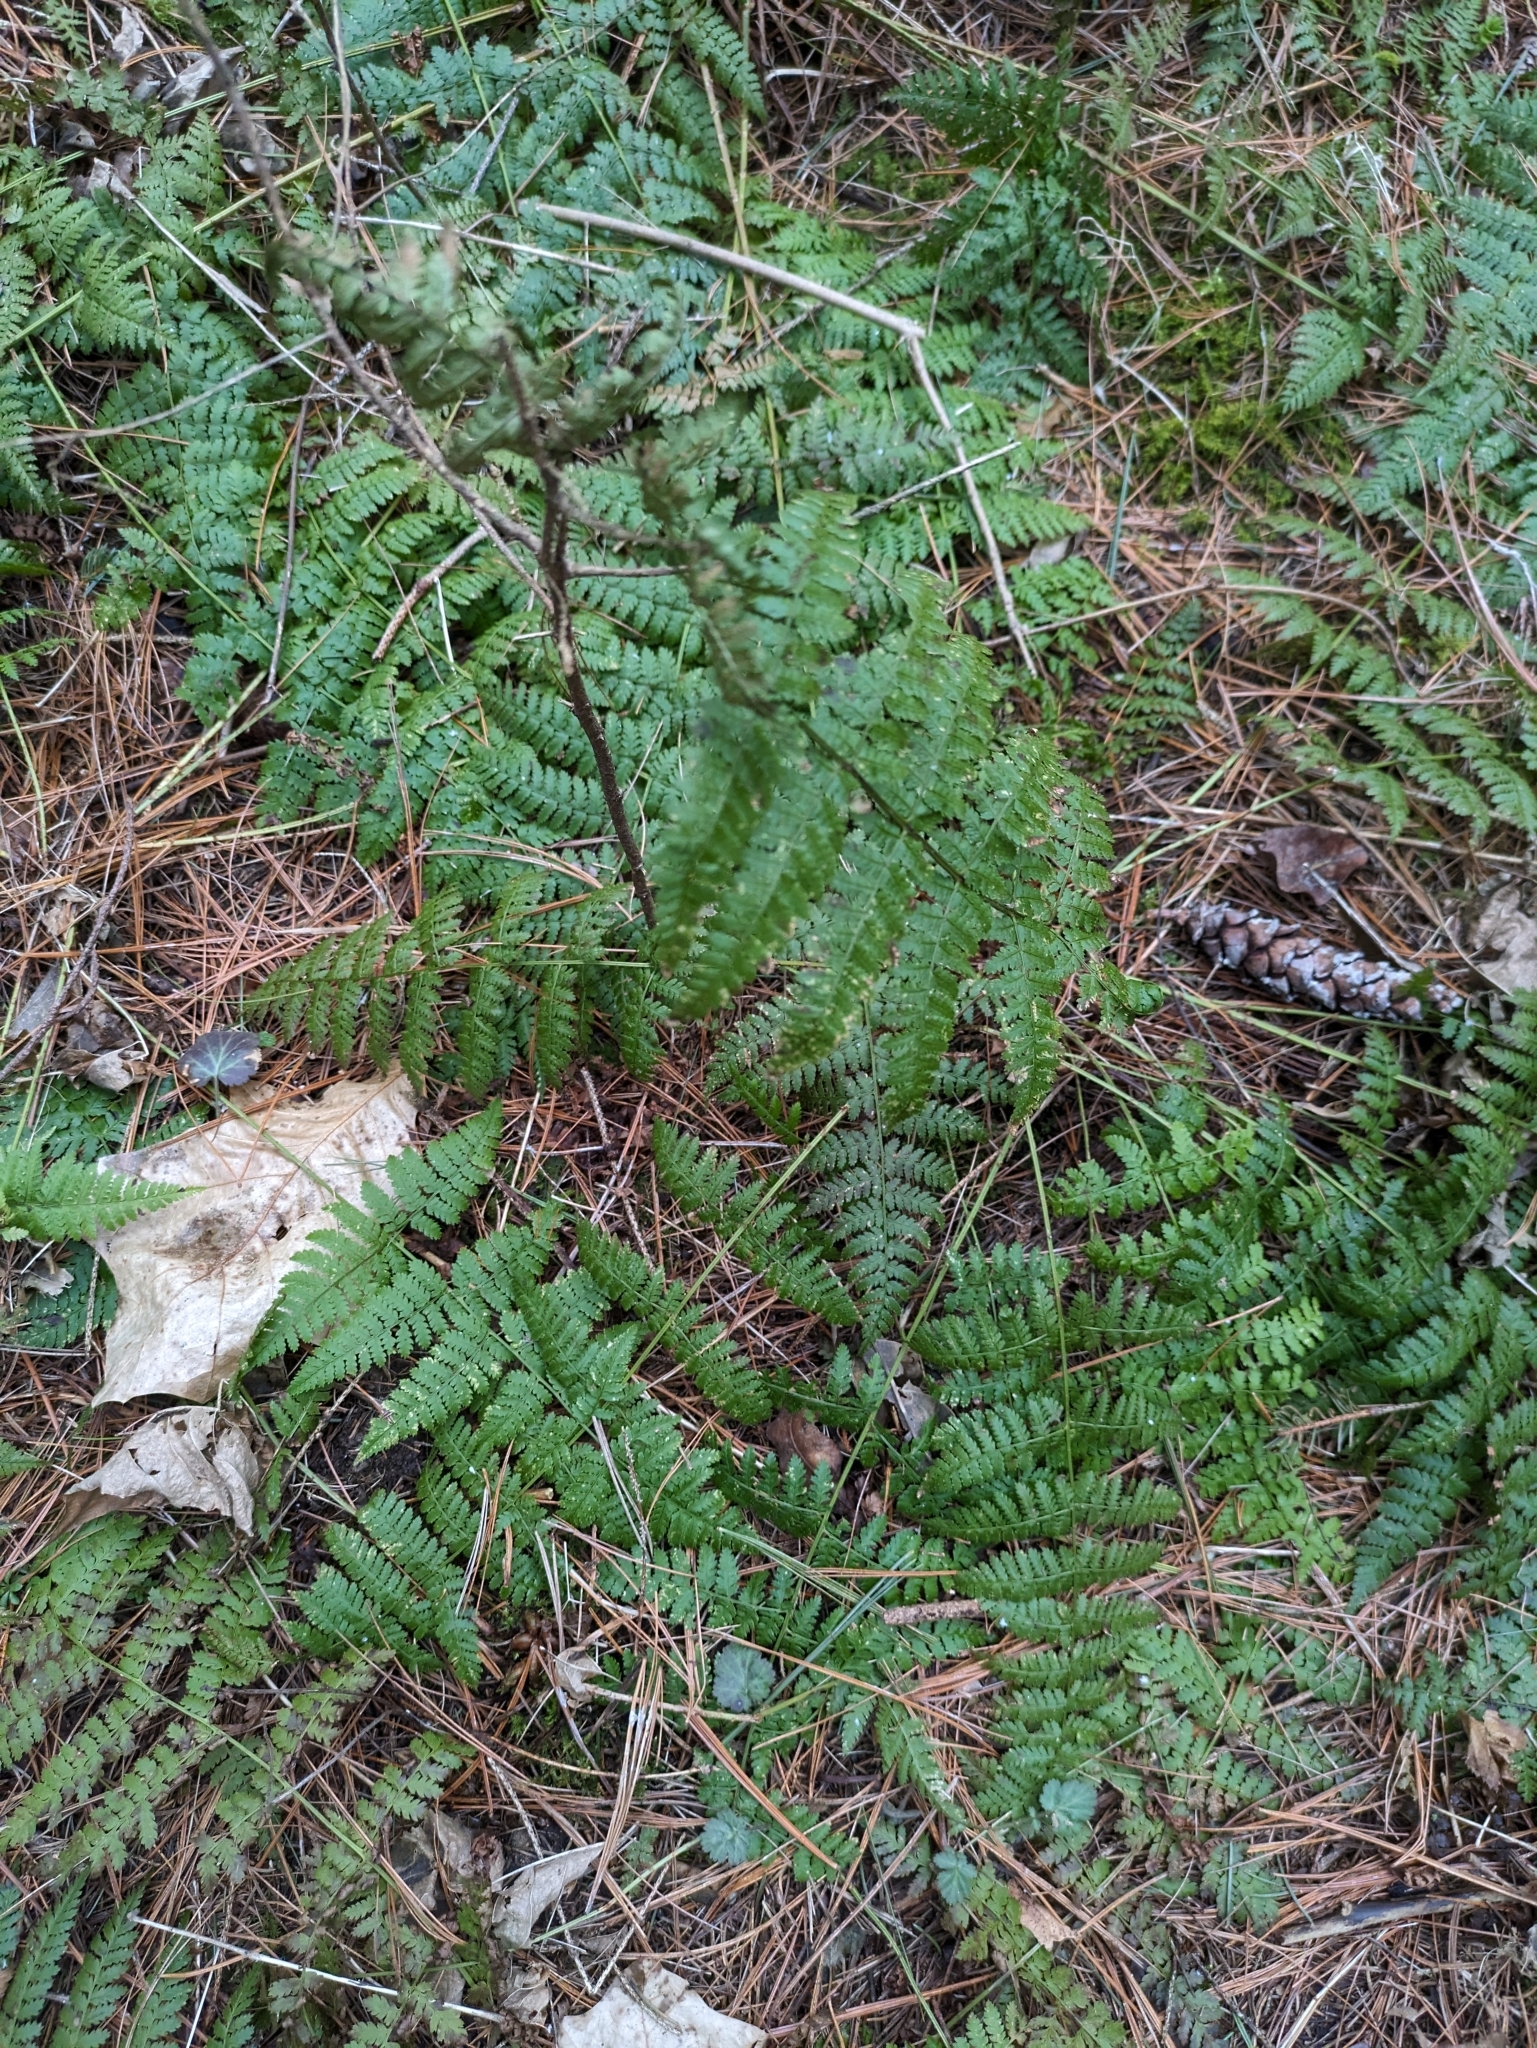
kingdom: Plantae
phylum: Tracheophyta
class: Polypodiopsida
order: Polypodiales
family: Dryopteridaceae
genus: Dryopteris
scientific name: Dryopteris intermedia
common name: Evergreen wood fern
